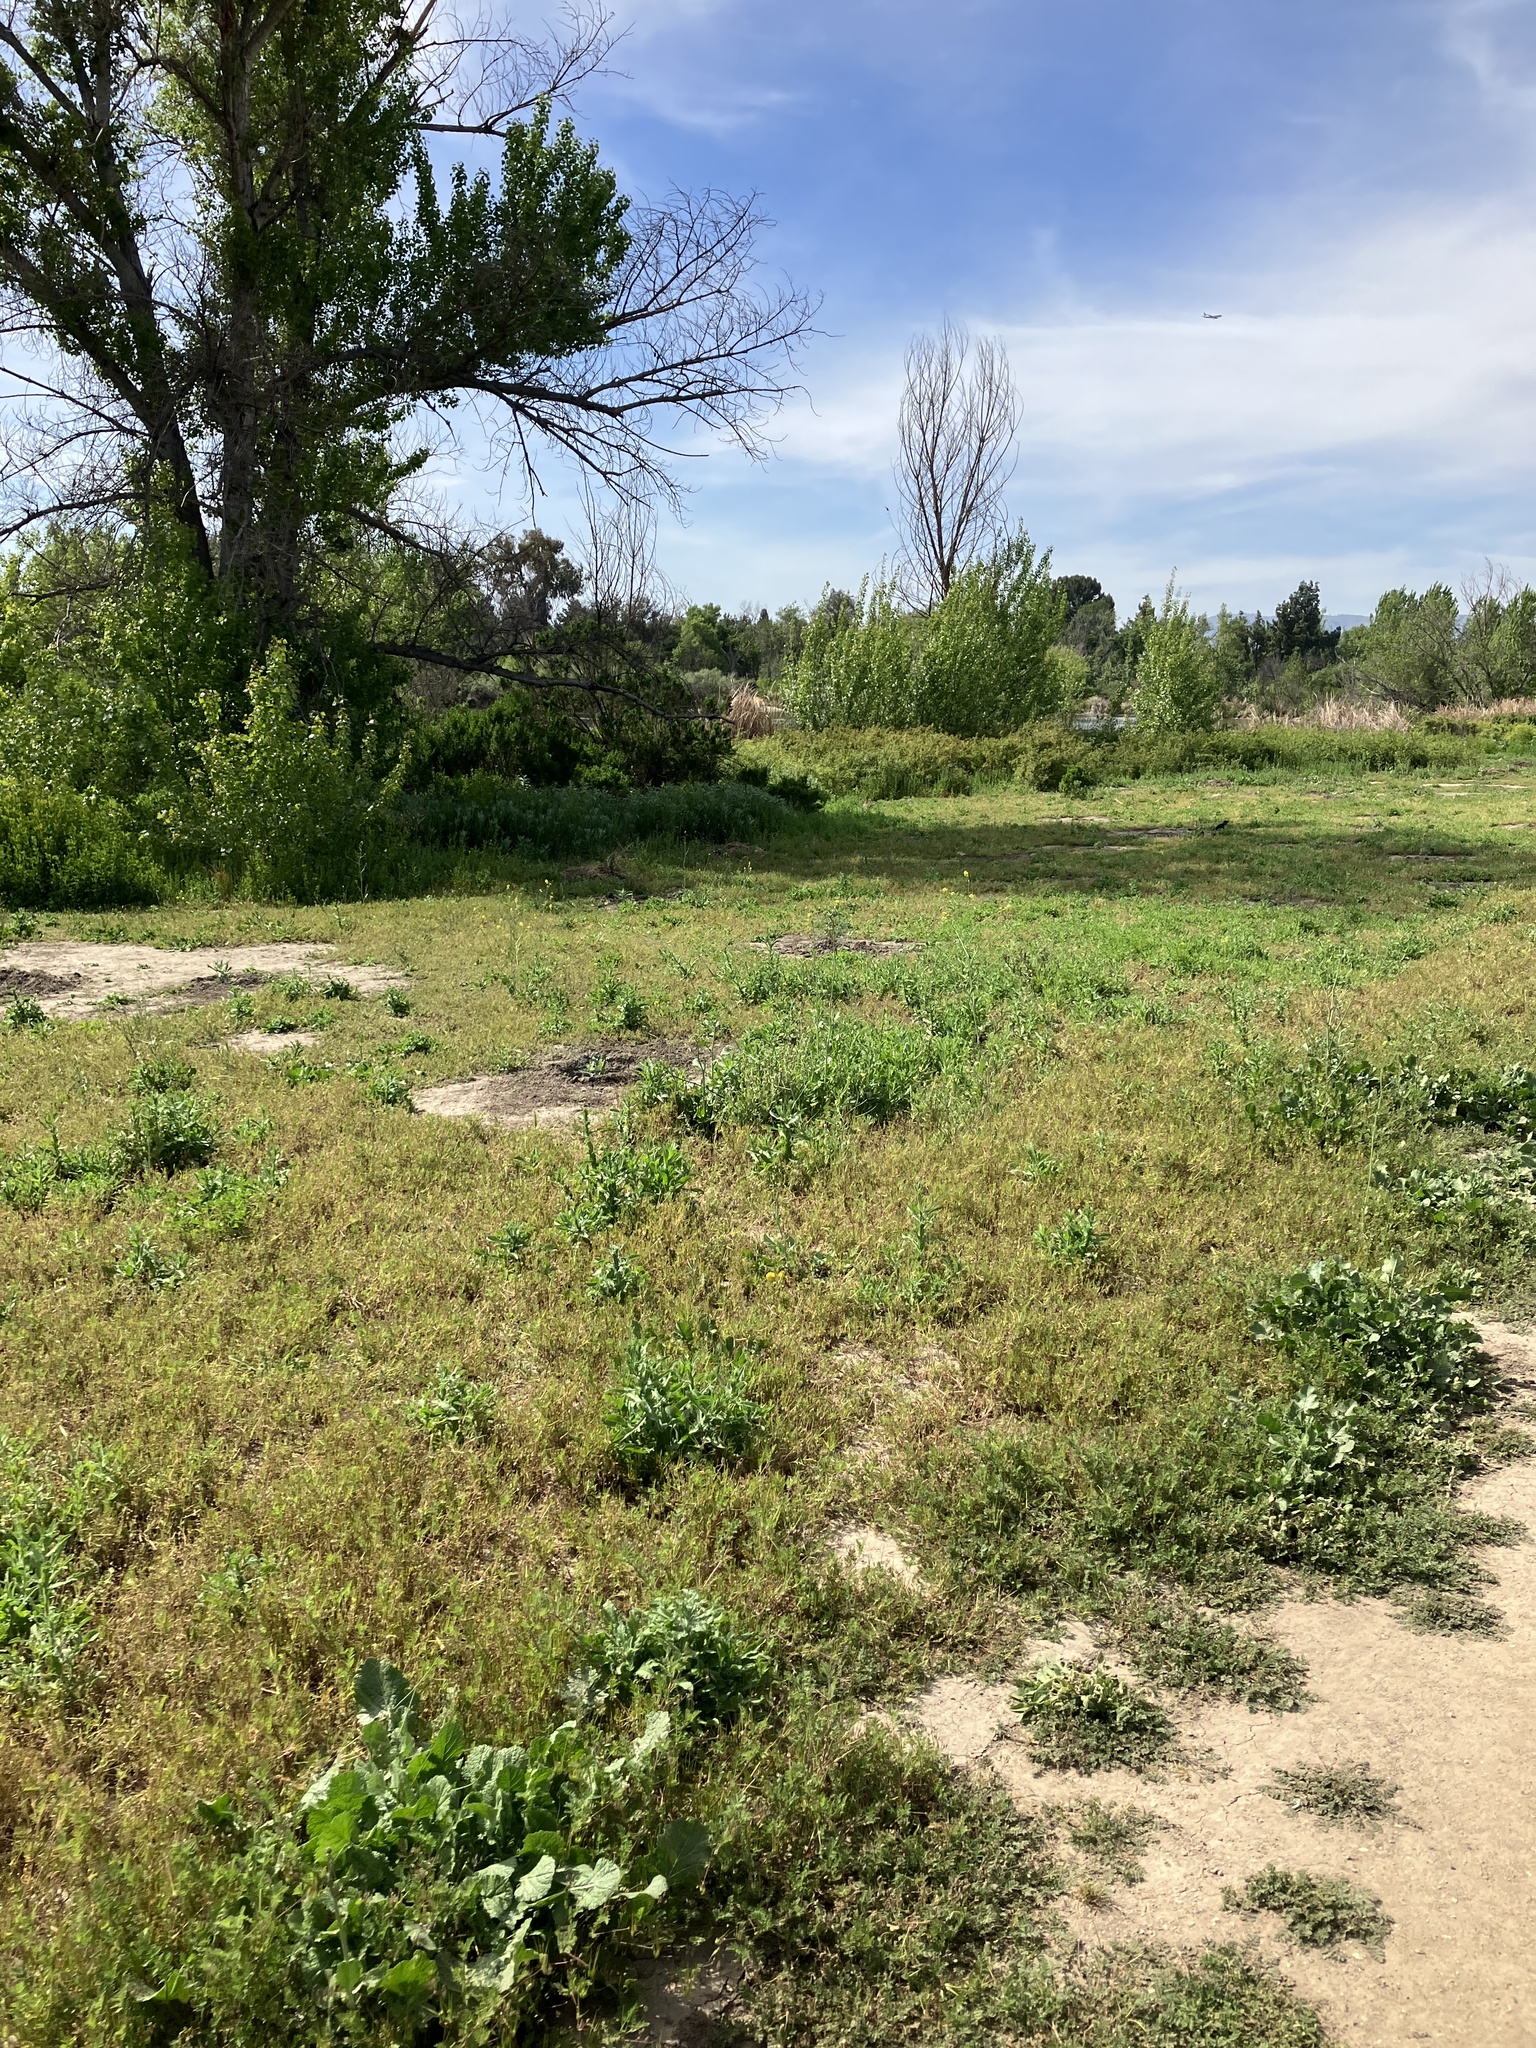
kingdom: Animalia
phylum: Chordata
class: Mammalia
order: Lagomorpha
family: Leporidae
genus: Sylvilagus
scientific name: Sylvilagus audubonii
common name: Desert cottontail
